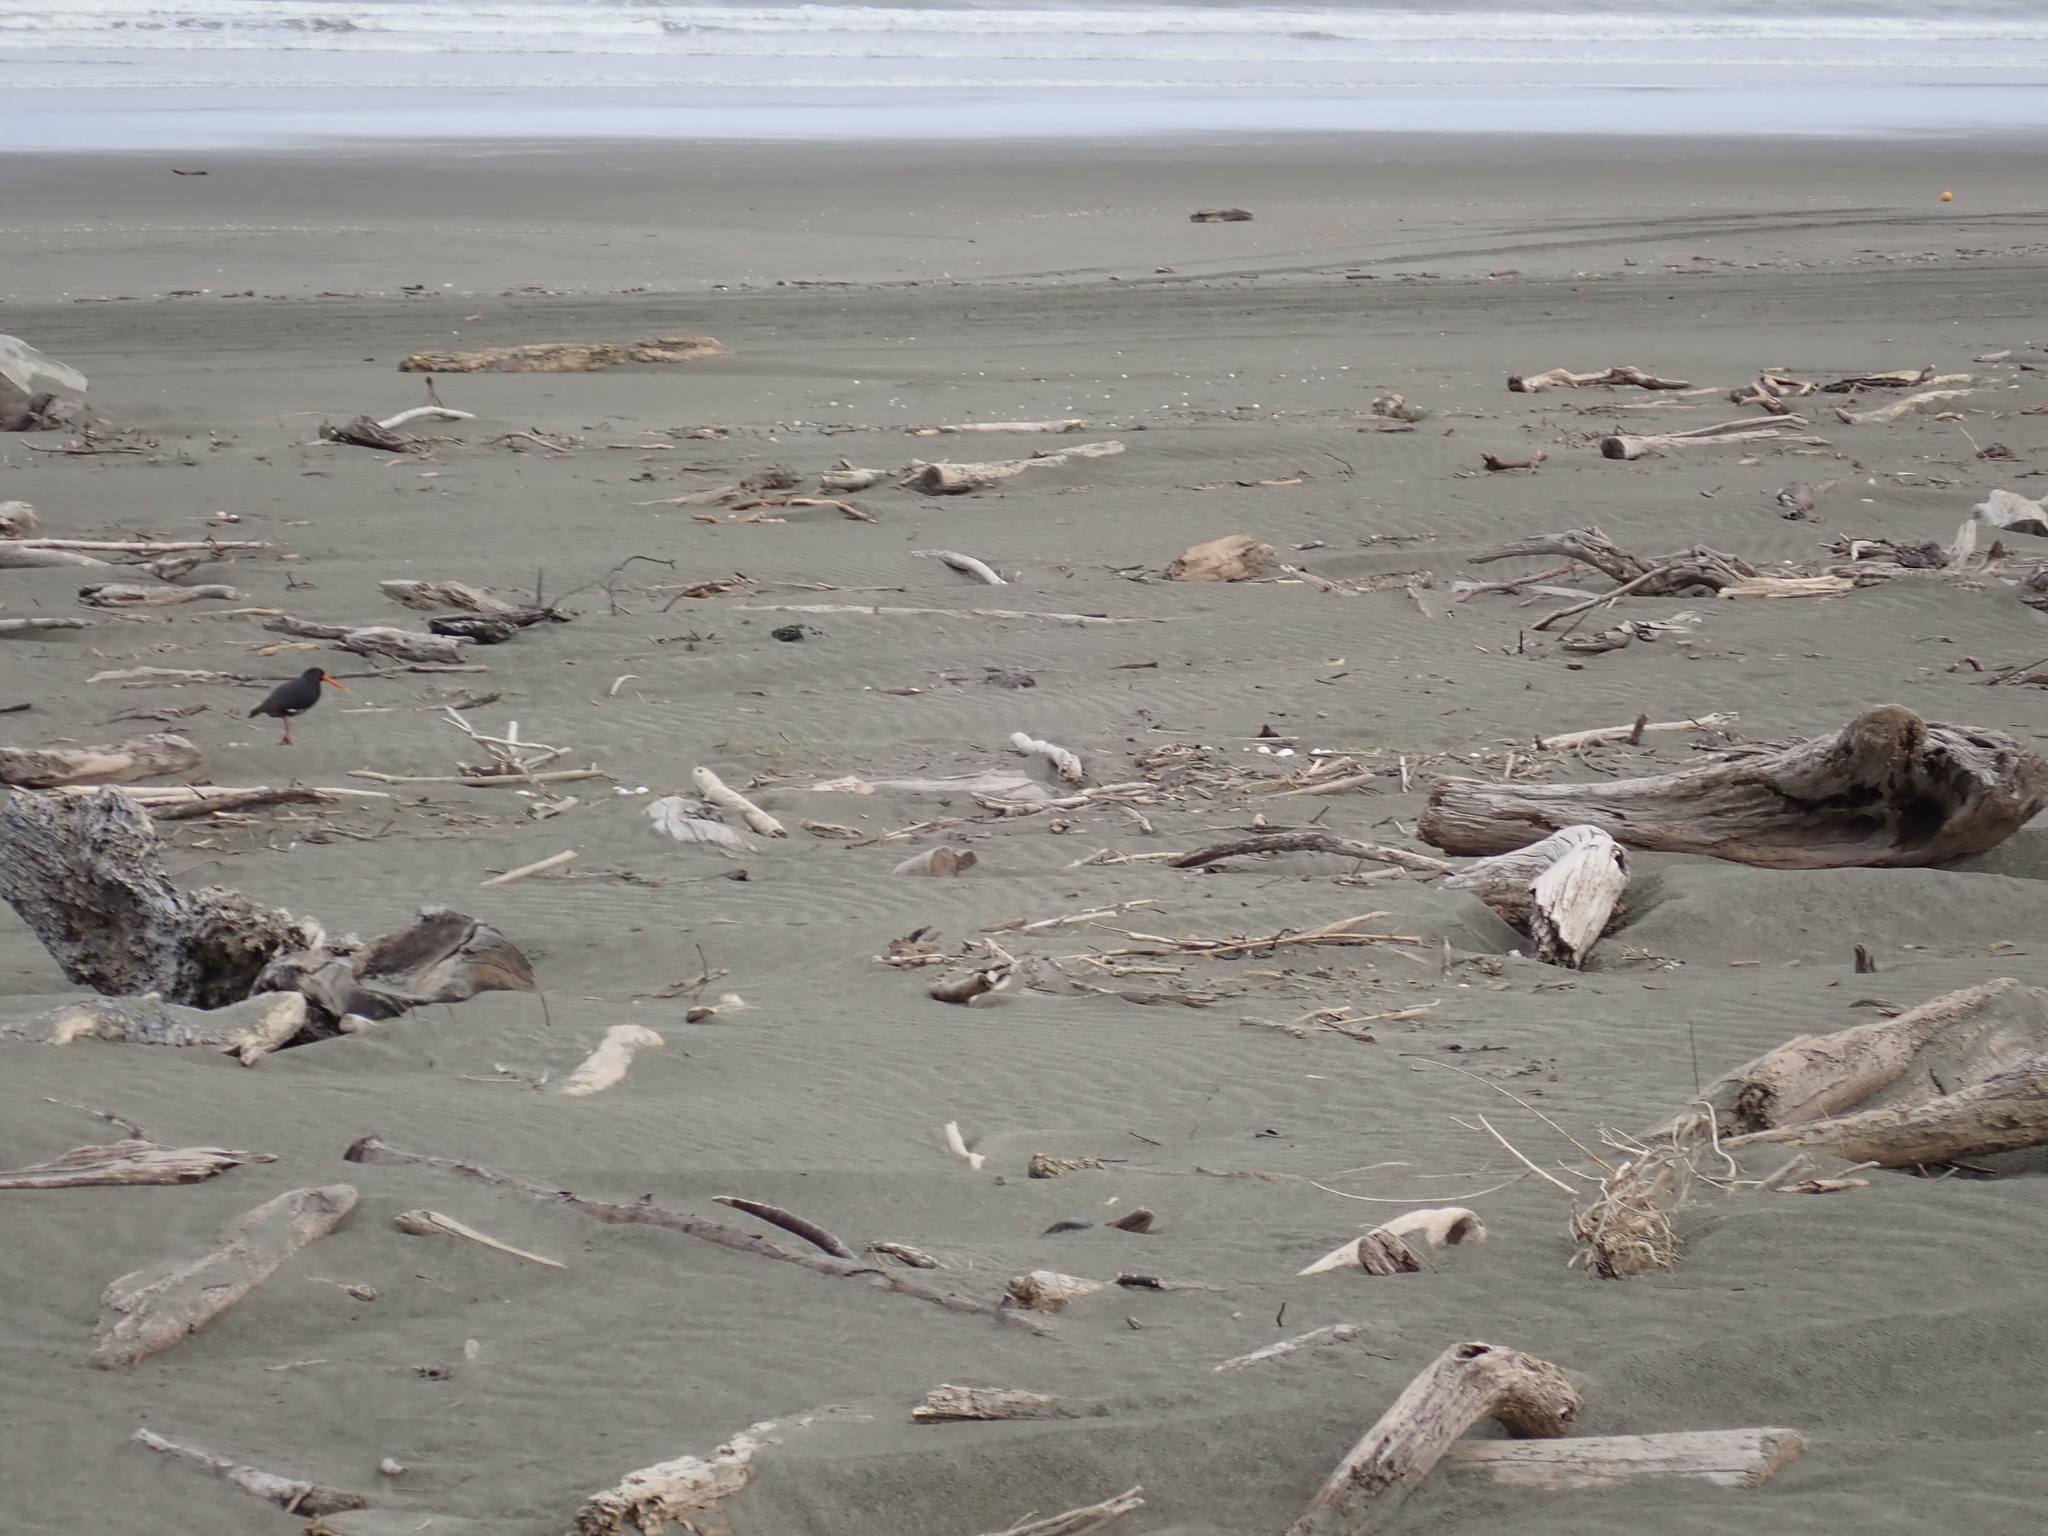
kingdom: Animalia
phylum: Chordata
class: Aves
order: Charadriiformes
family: Haematopodidae
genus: Haematopus
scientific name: Haematopus unicolor
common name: Variable oystercatcher
